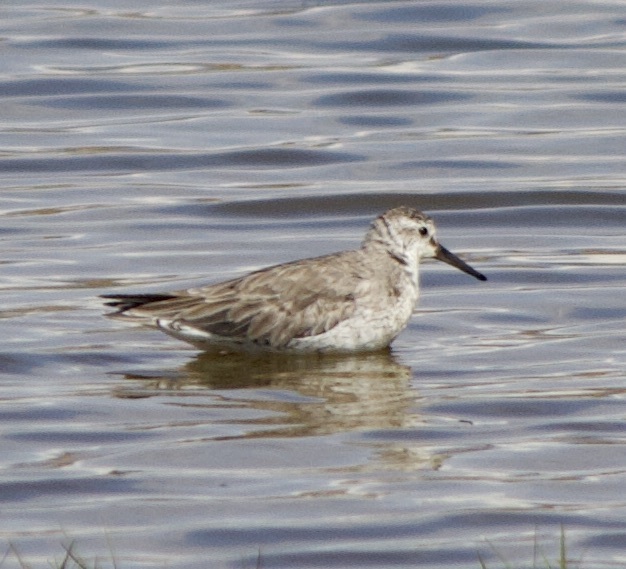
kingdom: Animalia
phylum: Chordata
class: Aves
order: Charadriiformes
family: Scolopacidae
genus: Calidris
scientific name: Calidris canutus
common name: Red knot
